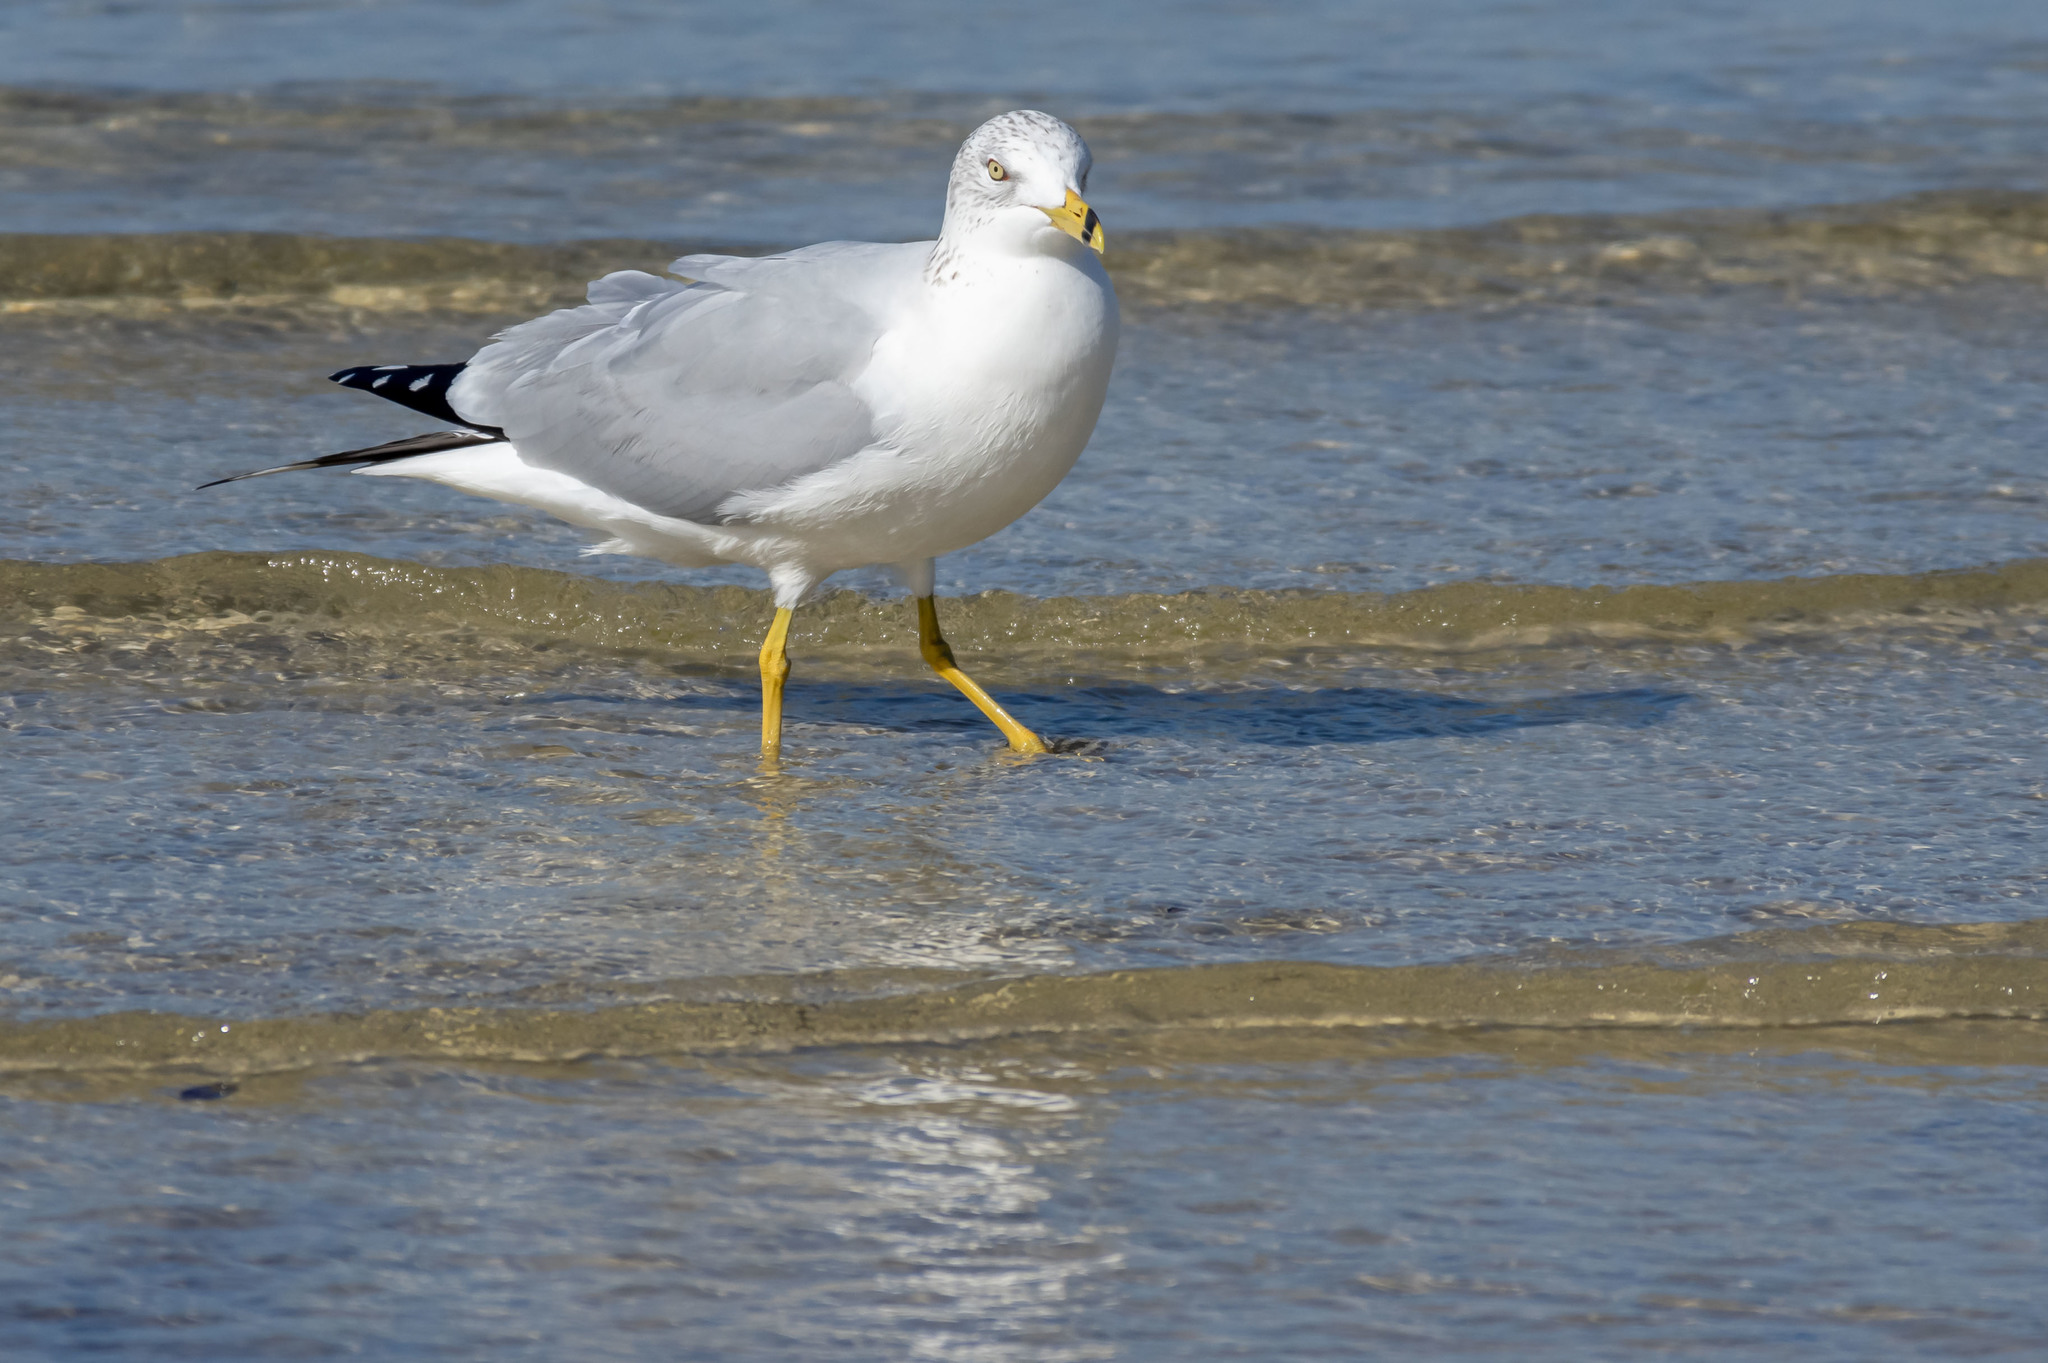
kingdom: Animalia
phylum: Chordata
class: Aves
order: Charadriiformes
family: Laridae
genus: Larus
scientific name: Larus delawarensis
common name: Ring-billed gull
